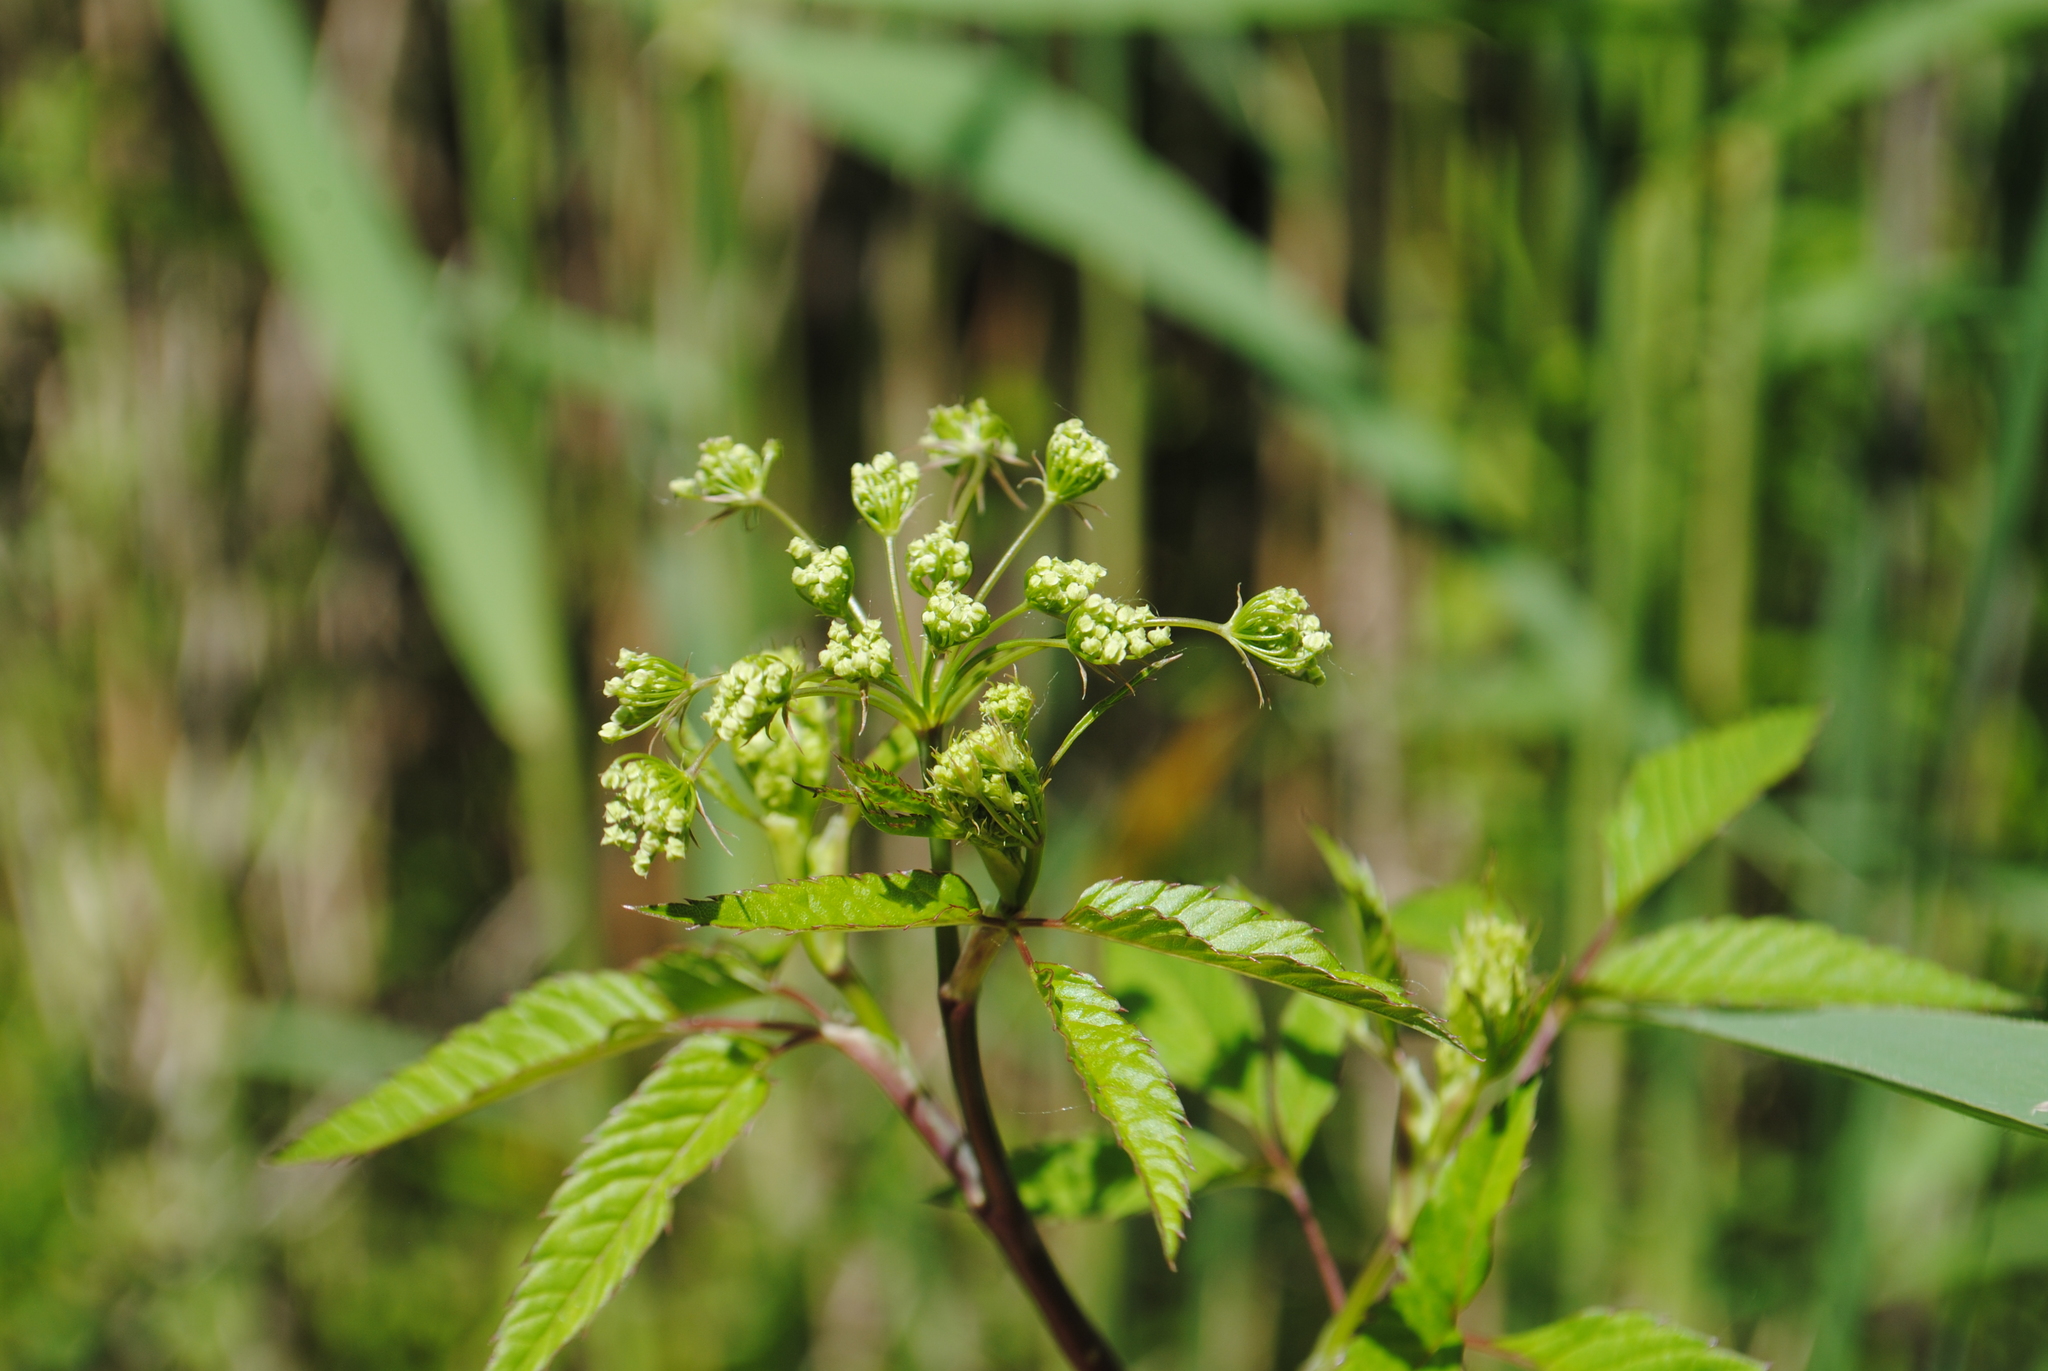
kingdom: Plantae
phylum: Tracheophyta
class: Magnoliopsida
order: Apiales
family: Apiaceae
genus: Cicuta
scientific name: Cicuta maculata
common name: Spotted cowbane
